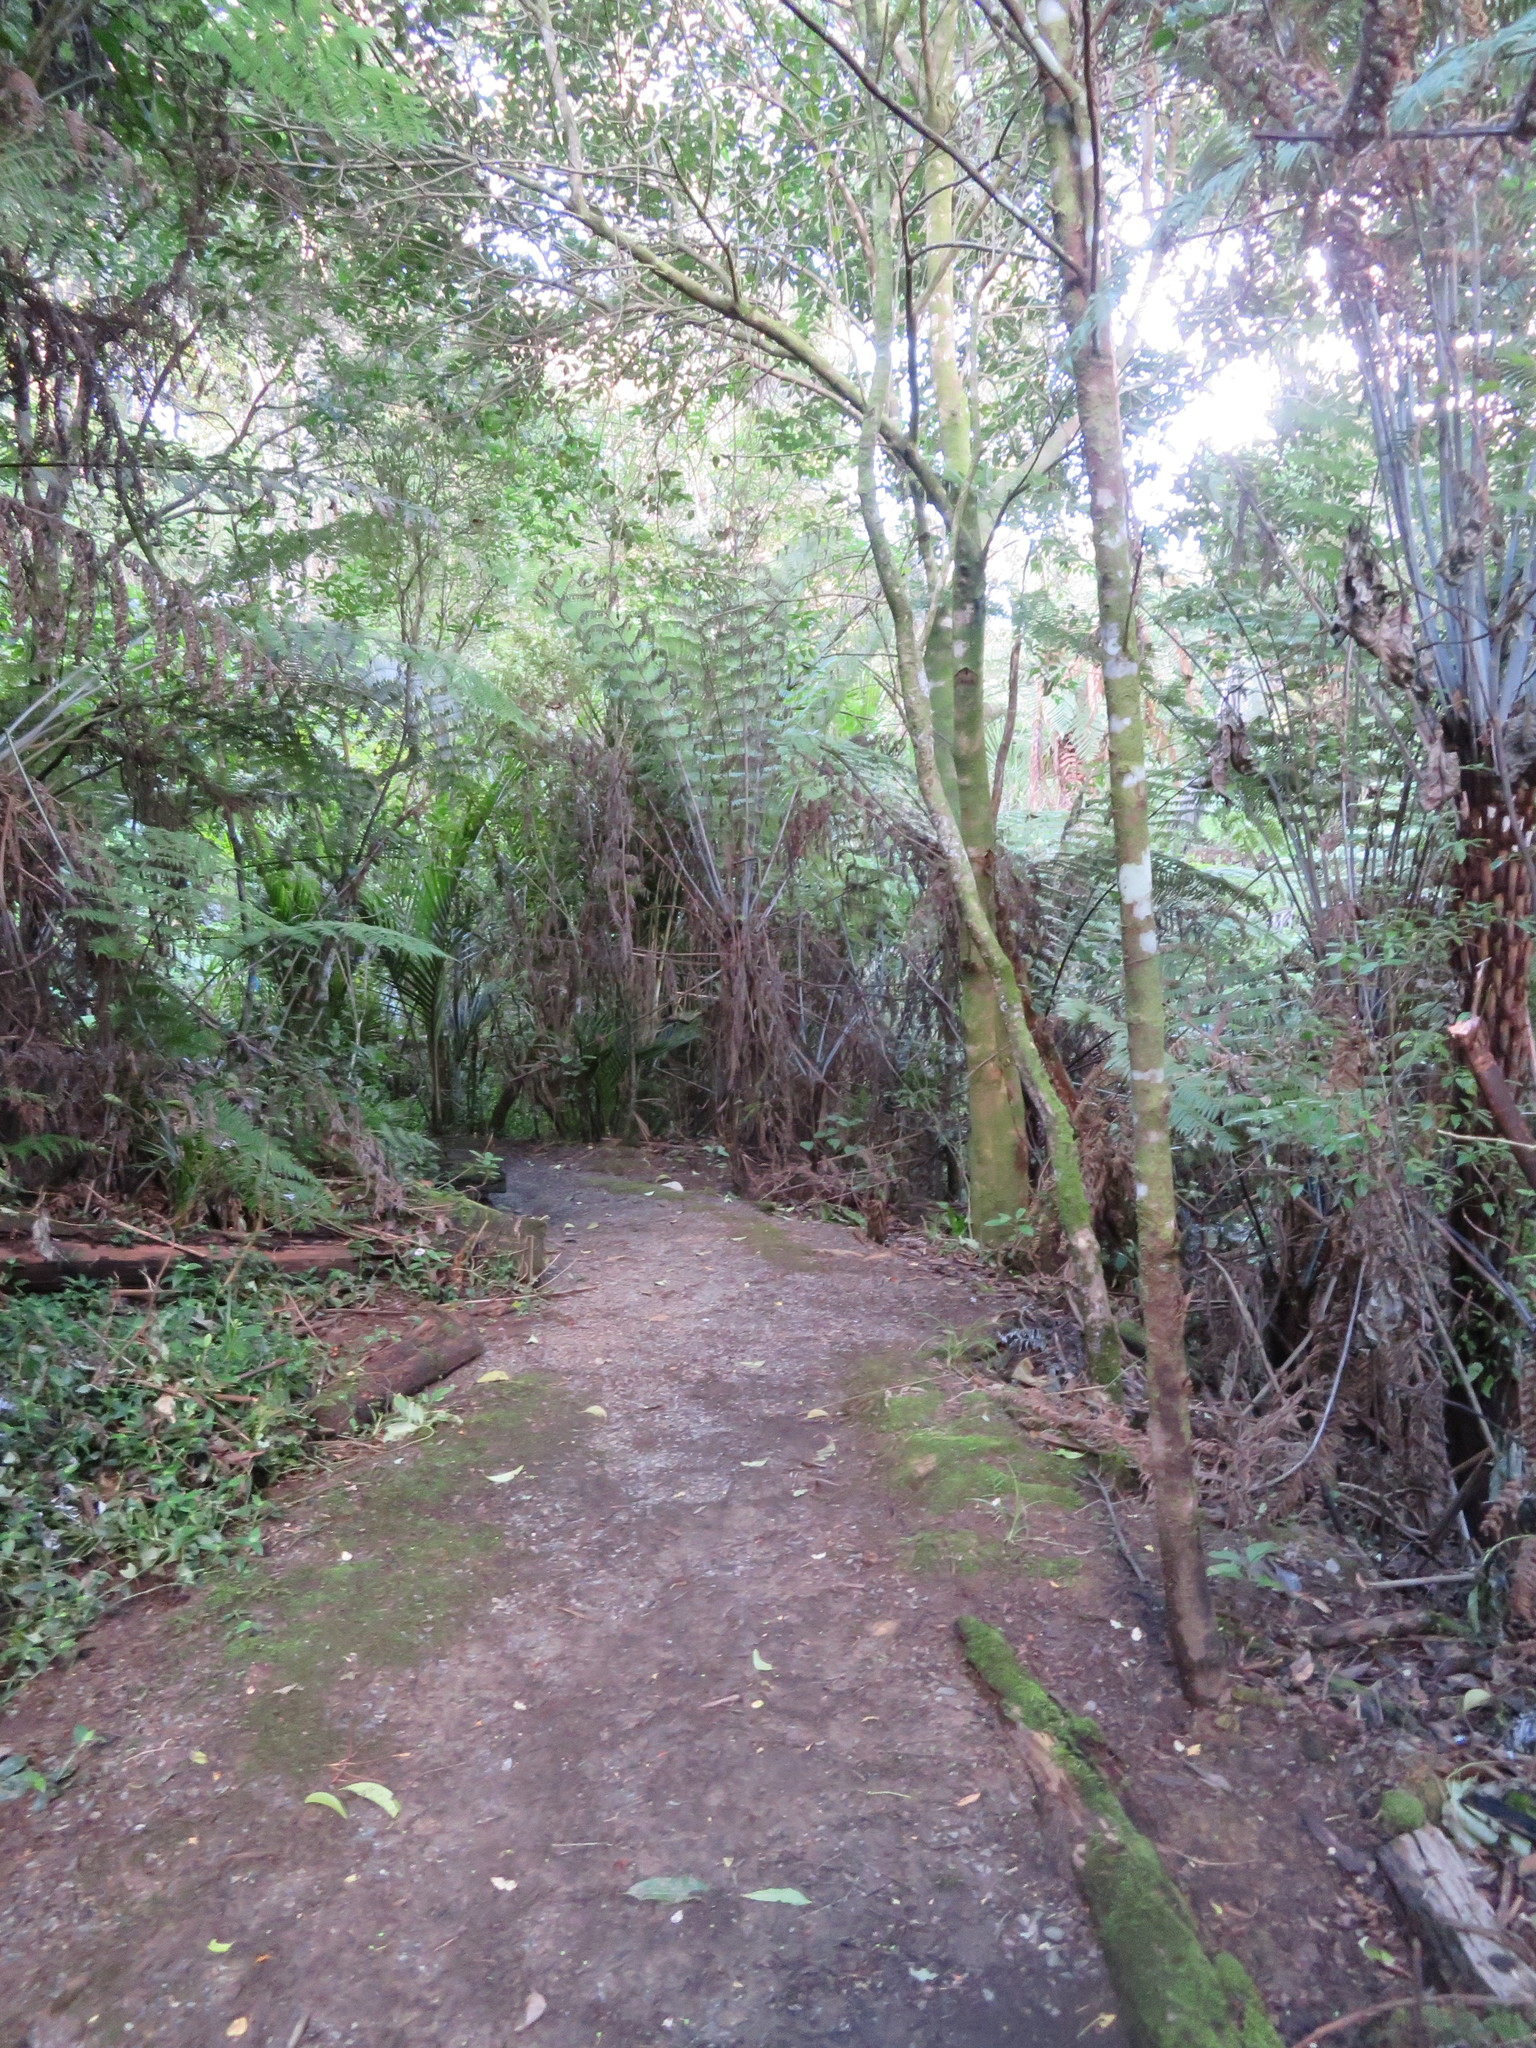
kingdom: Plantae
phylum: Tracheophyta
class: Liliopsida
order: Commelinales
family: Commelinaceae
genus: Tradescantia
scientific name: Tradescantia fluminensis
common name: Wandering-jew
